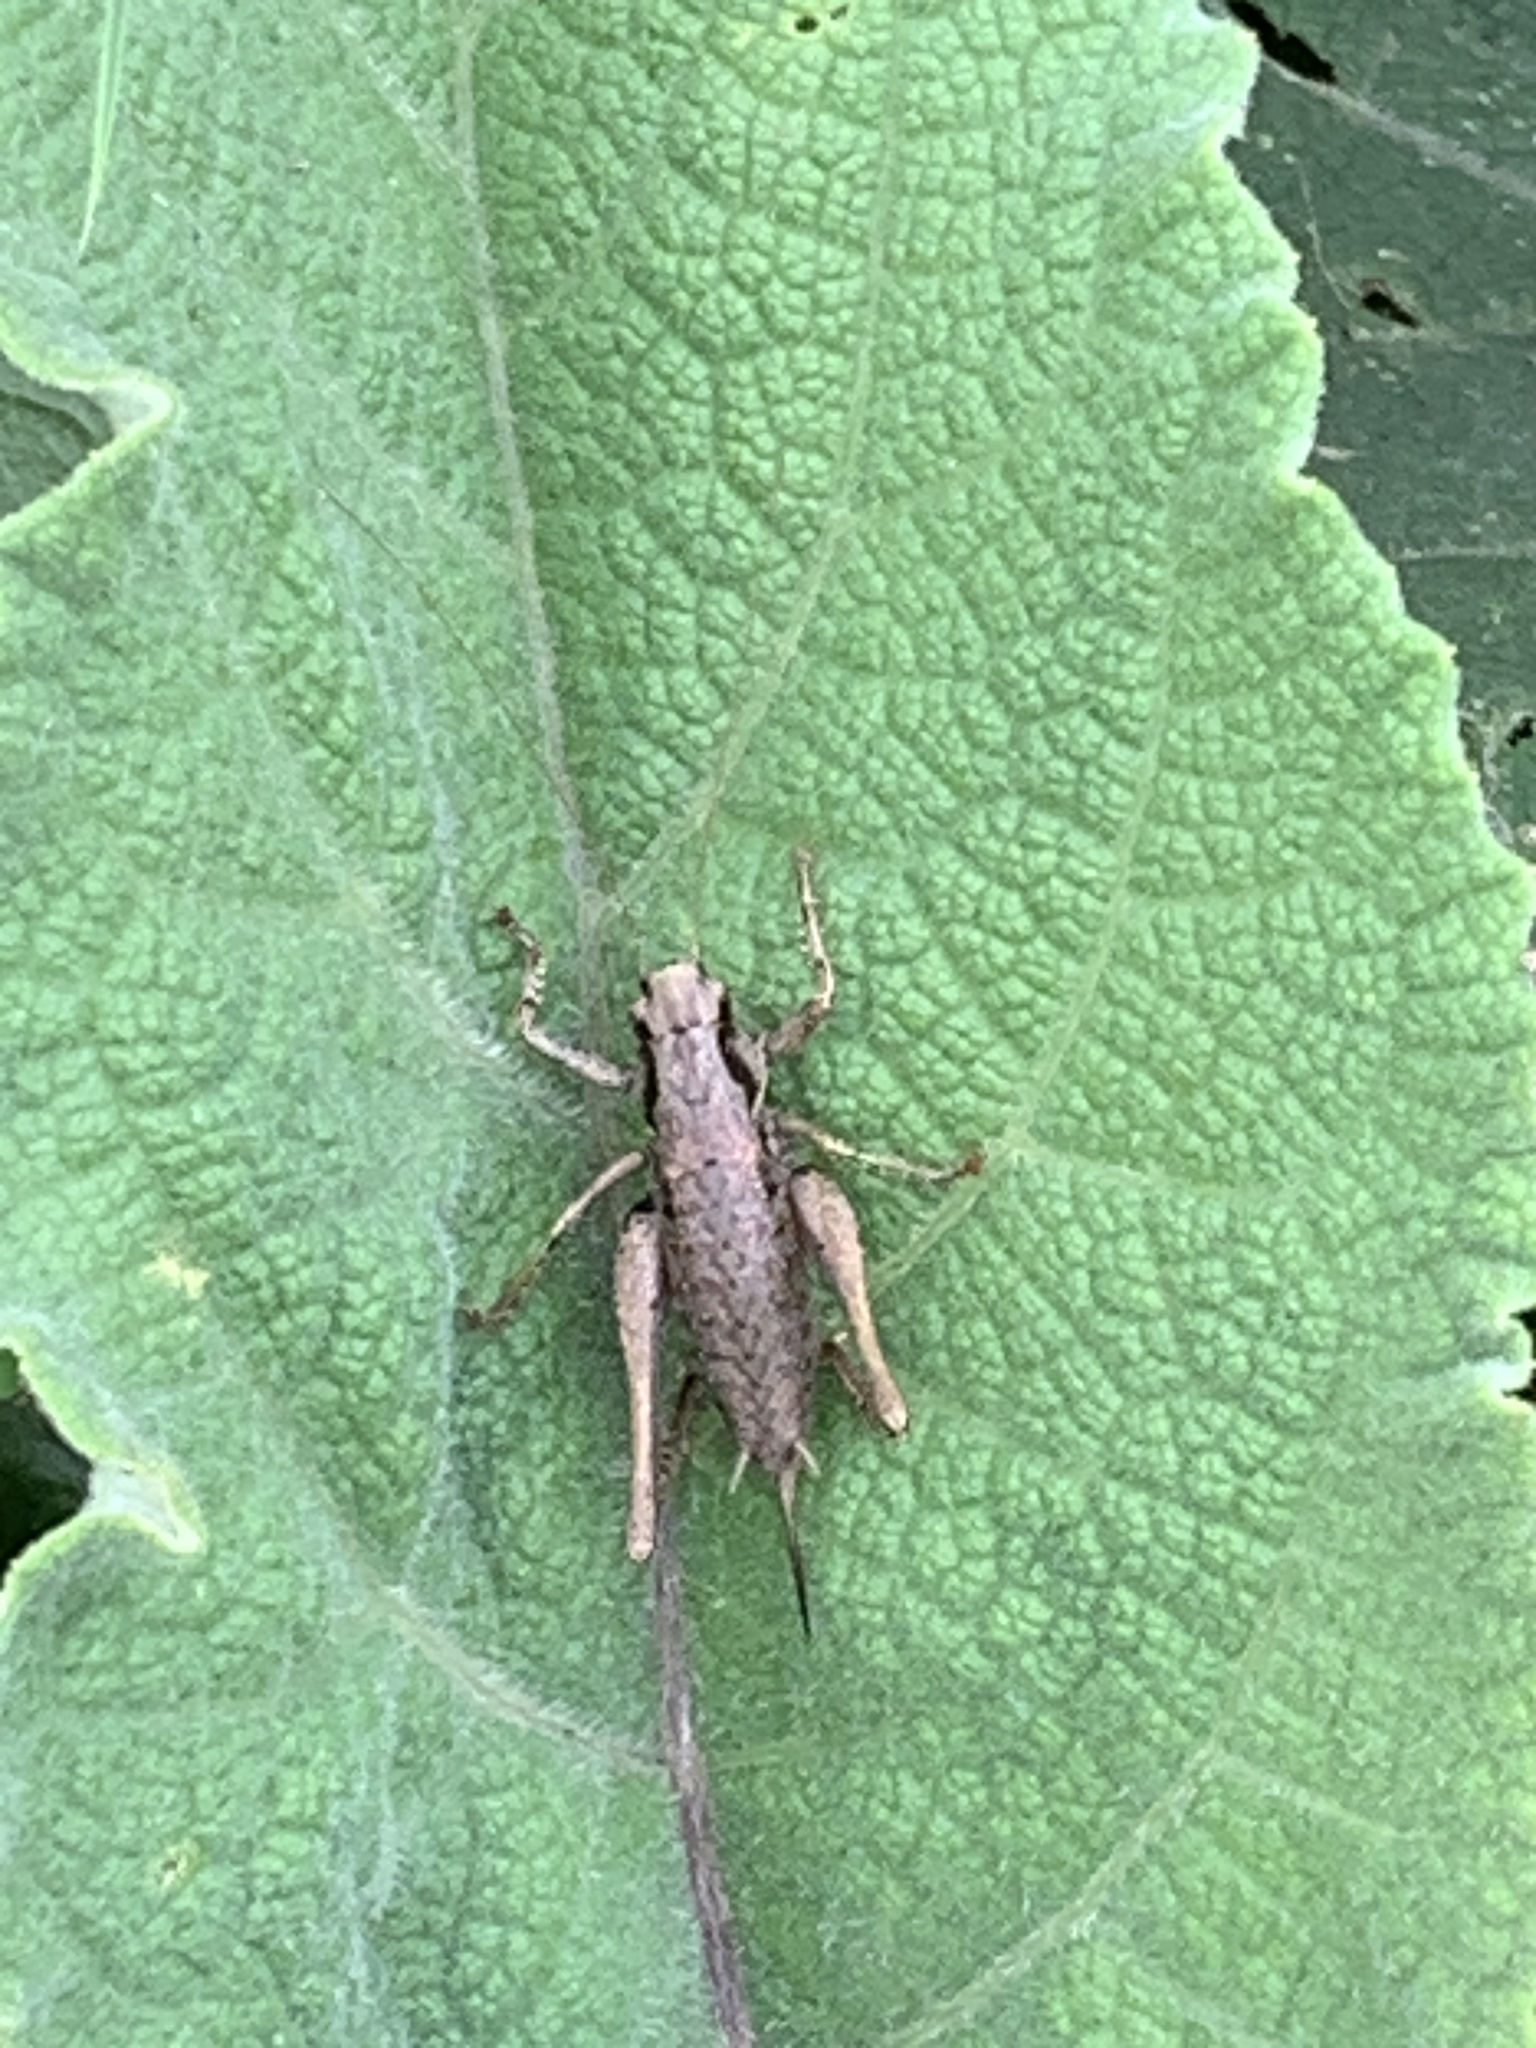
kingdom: Animalia
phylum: Arthropoda
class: Insecta
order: Orthoptera
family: Tettigoniidae
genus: Pholidoptera
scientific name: Pholidoptera griseoaptera
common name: Dark bush-cricket
